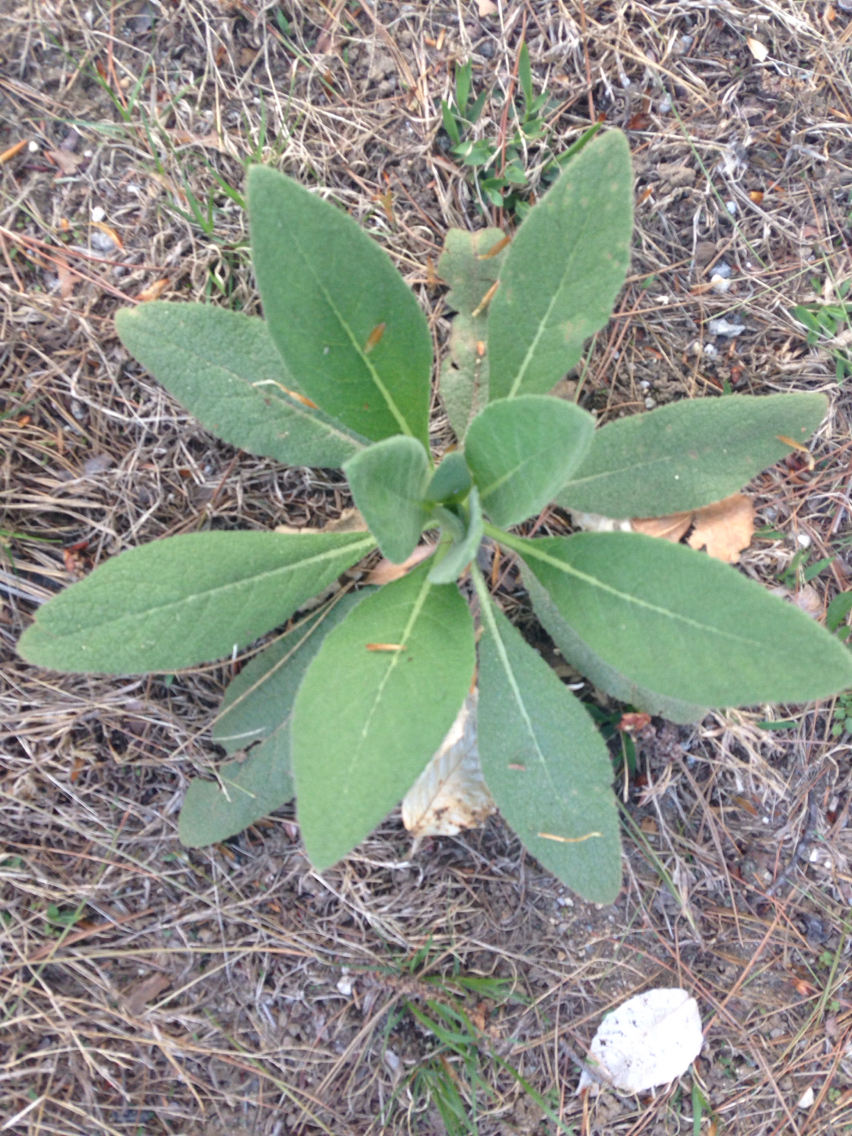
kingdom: Plantae
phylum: Tracheophyta
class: Magnoliopsida
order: Lamiales
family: Scrophulariaceae
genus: Verbascum
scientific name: Verbascum thapsus
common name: Common mullein
